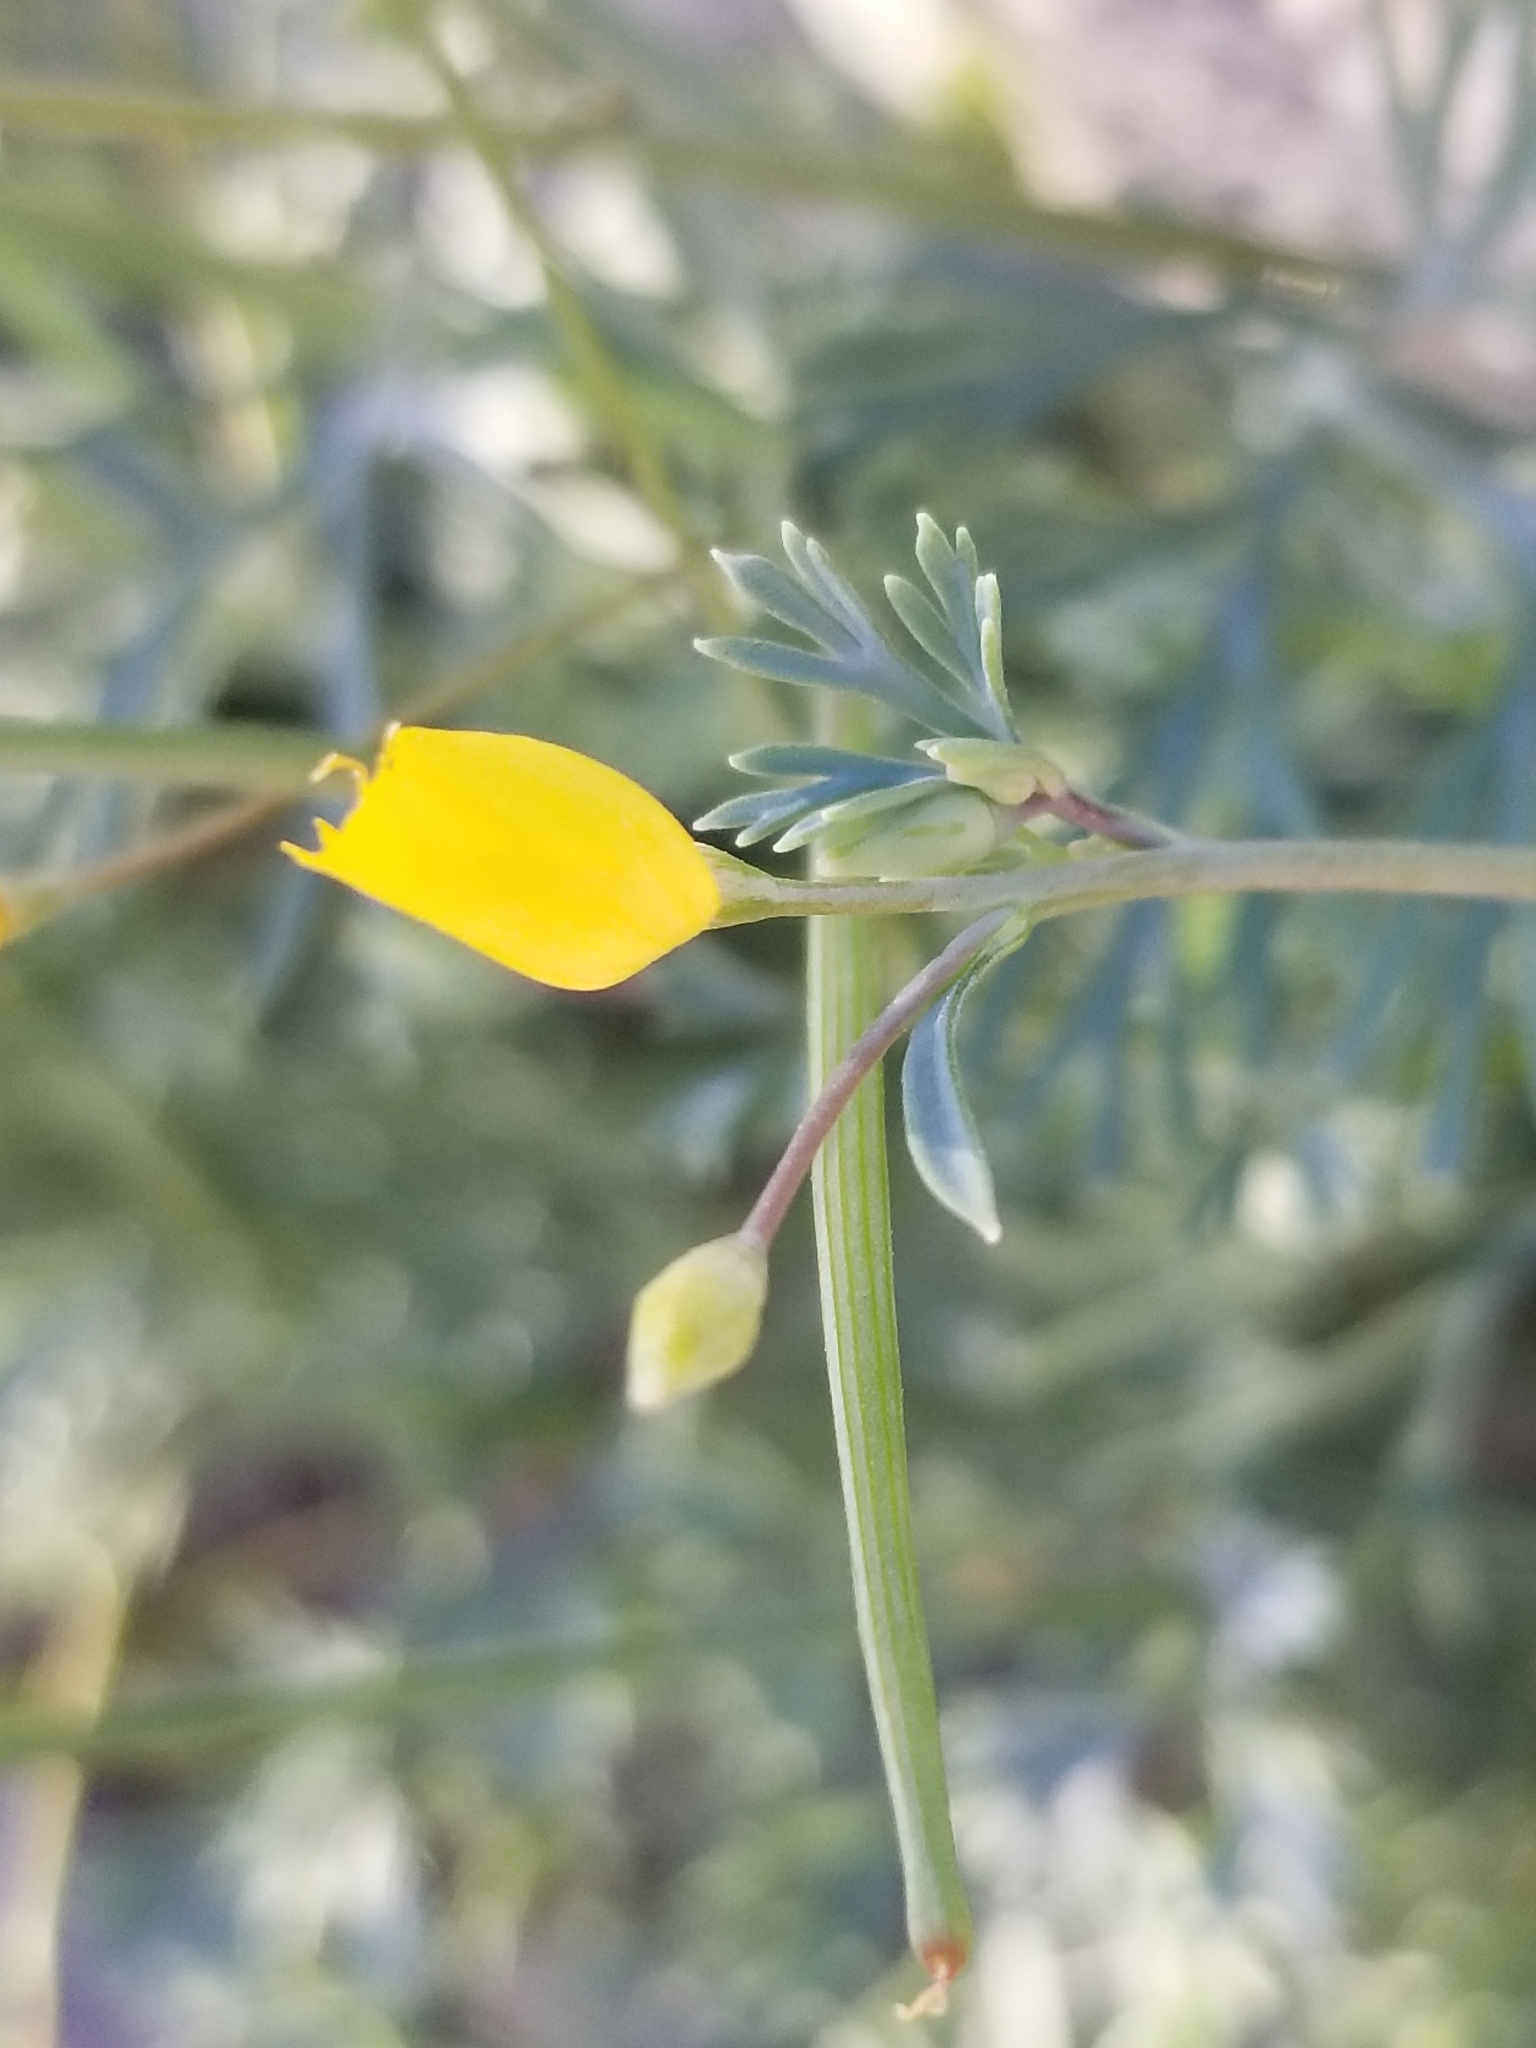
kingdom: Plantae
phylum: Tracheophyta
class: Magnoliopsida
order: Ranunculales
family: Papaveraceae
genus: Eschscholzia
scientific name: Eschscholzia minutiflora
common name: Small-flower california-poppy
